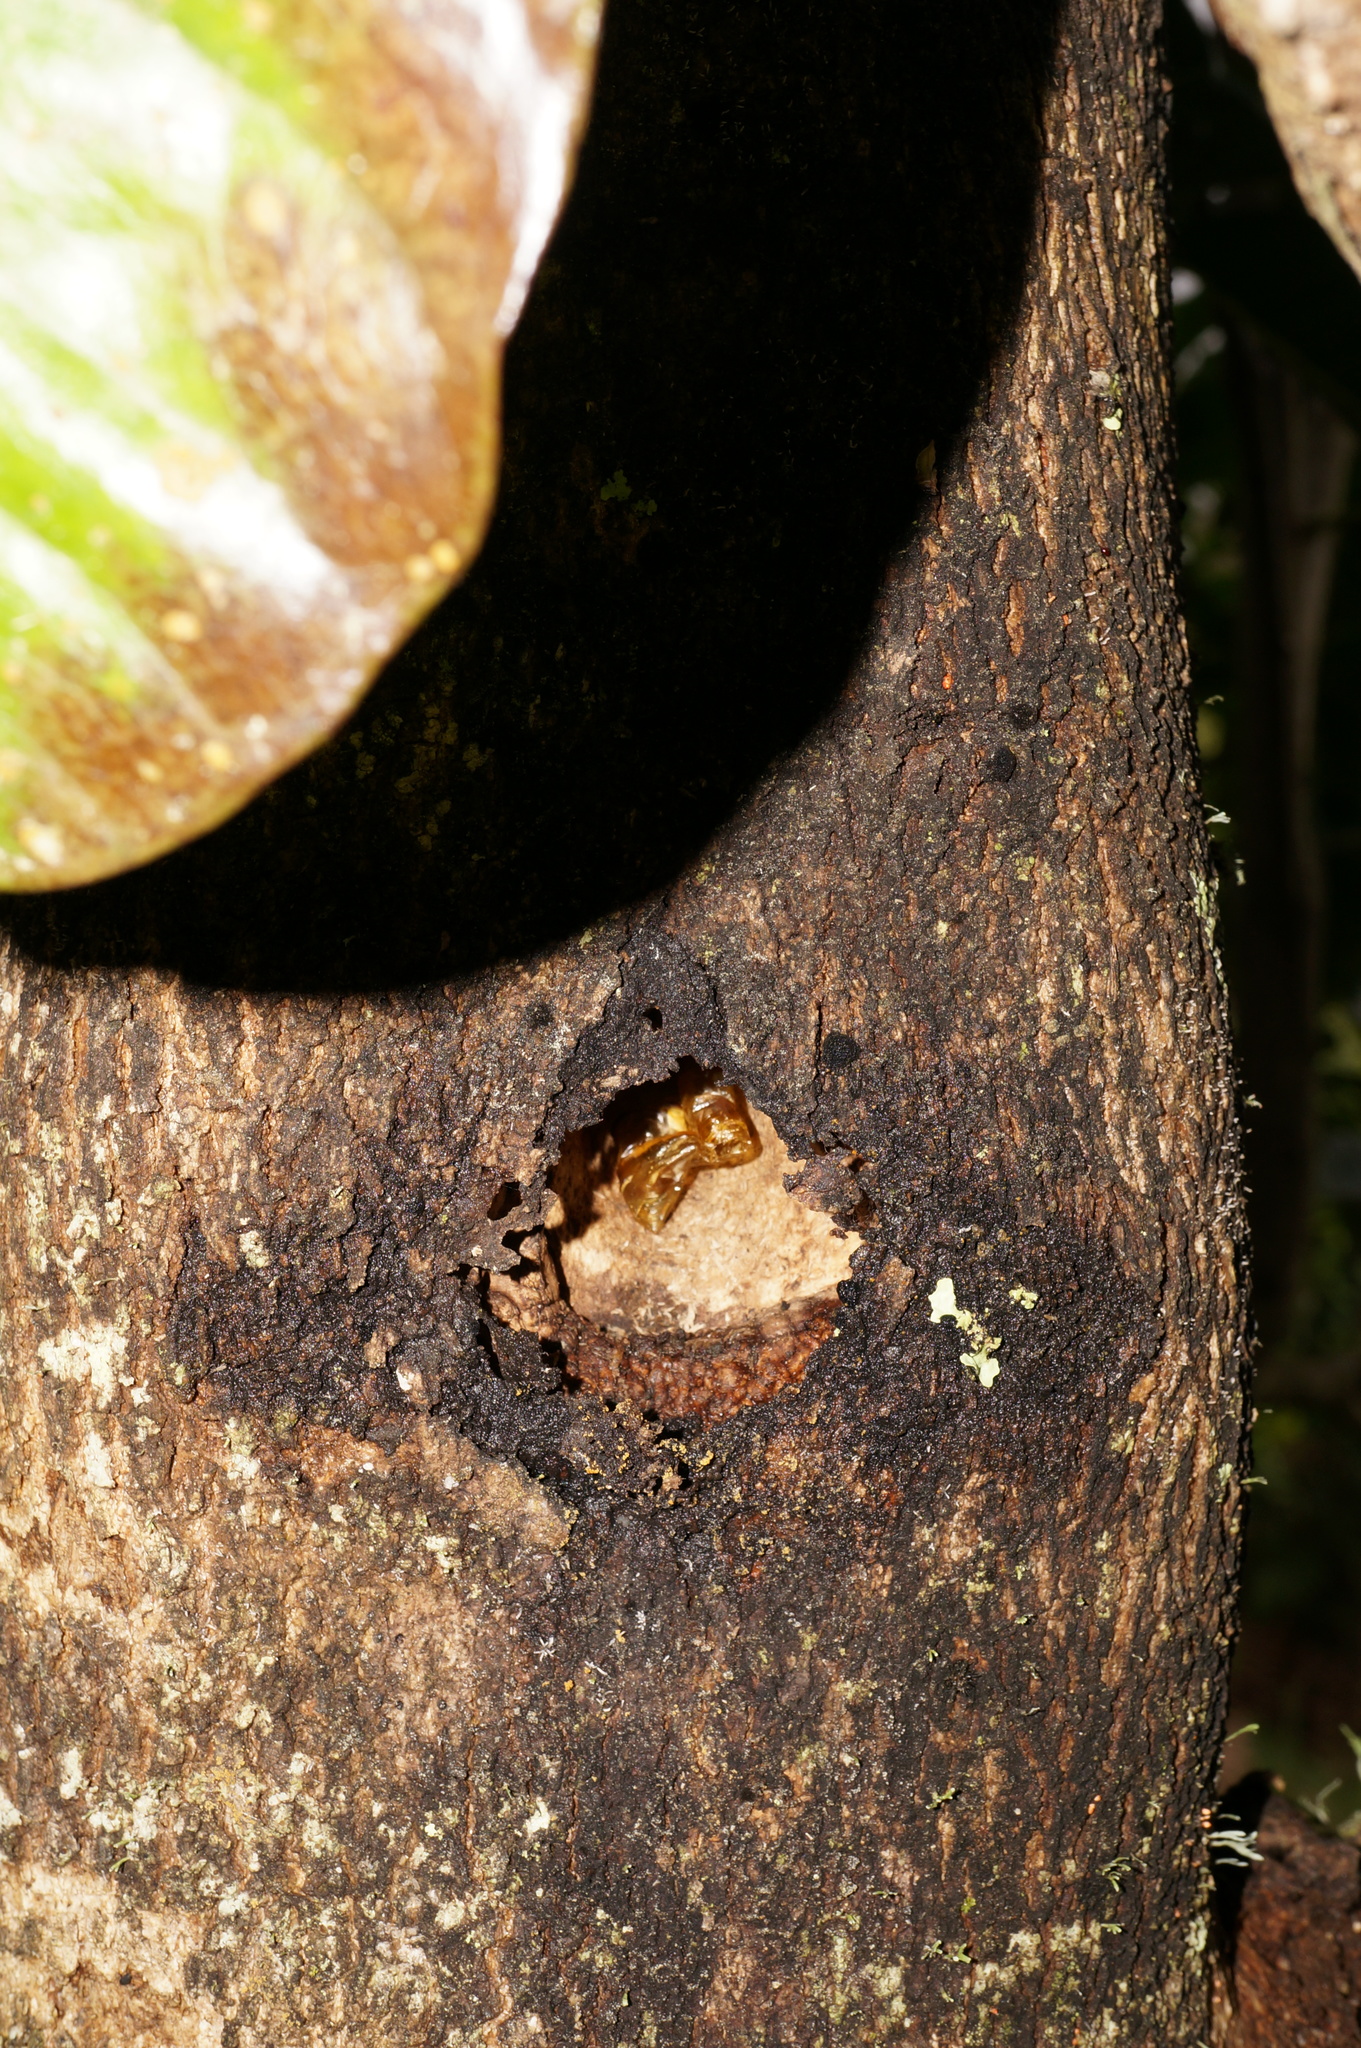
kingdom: Animalia
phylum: Arthropoda
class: Insecta
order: Lepidoptera
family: Hepialidae
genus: Aenetus
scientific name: Aenetus virescens
